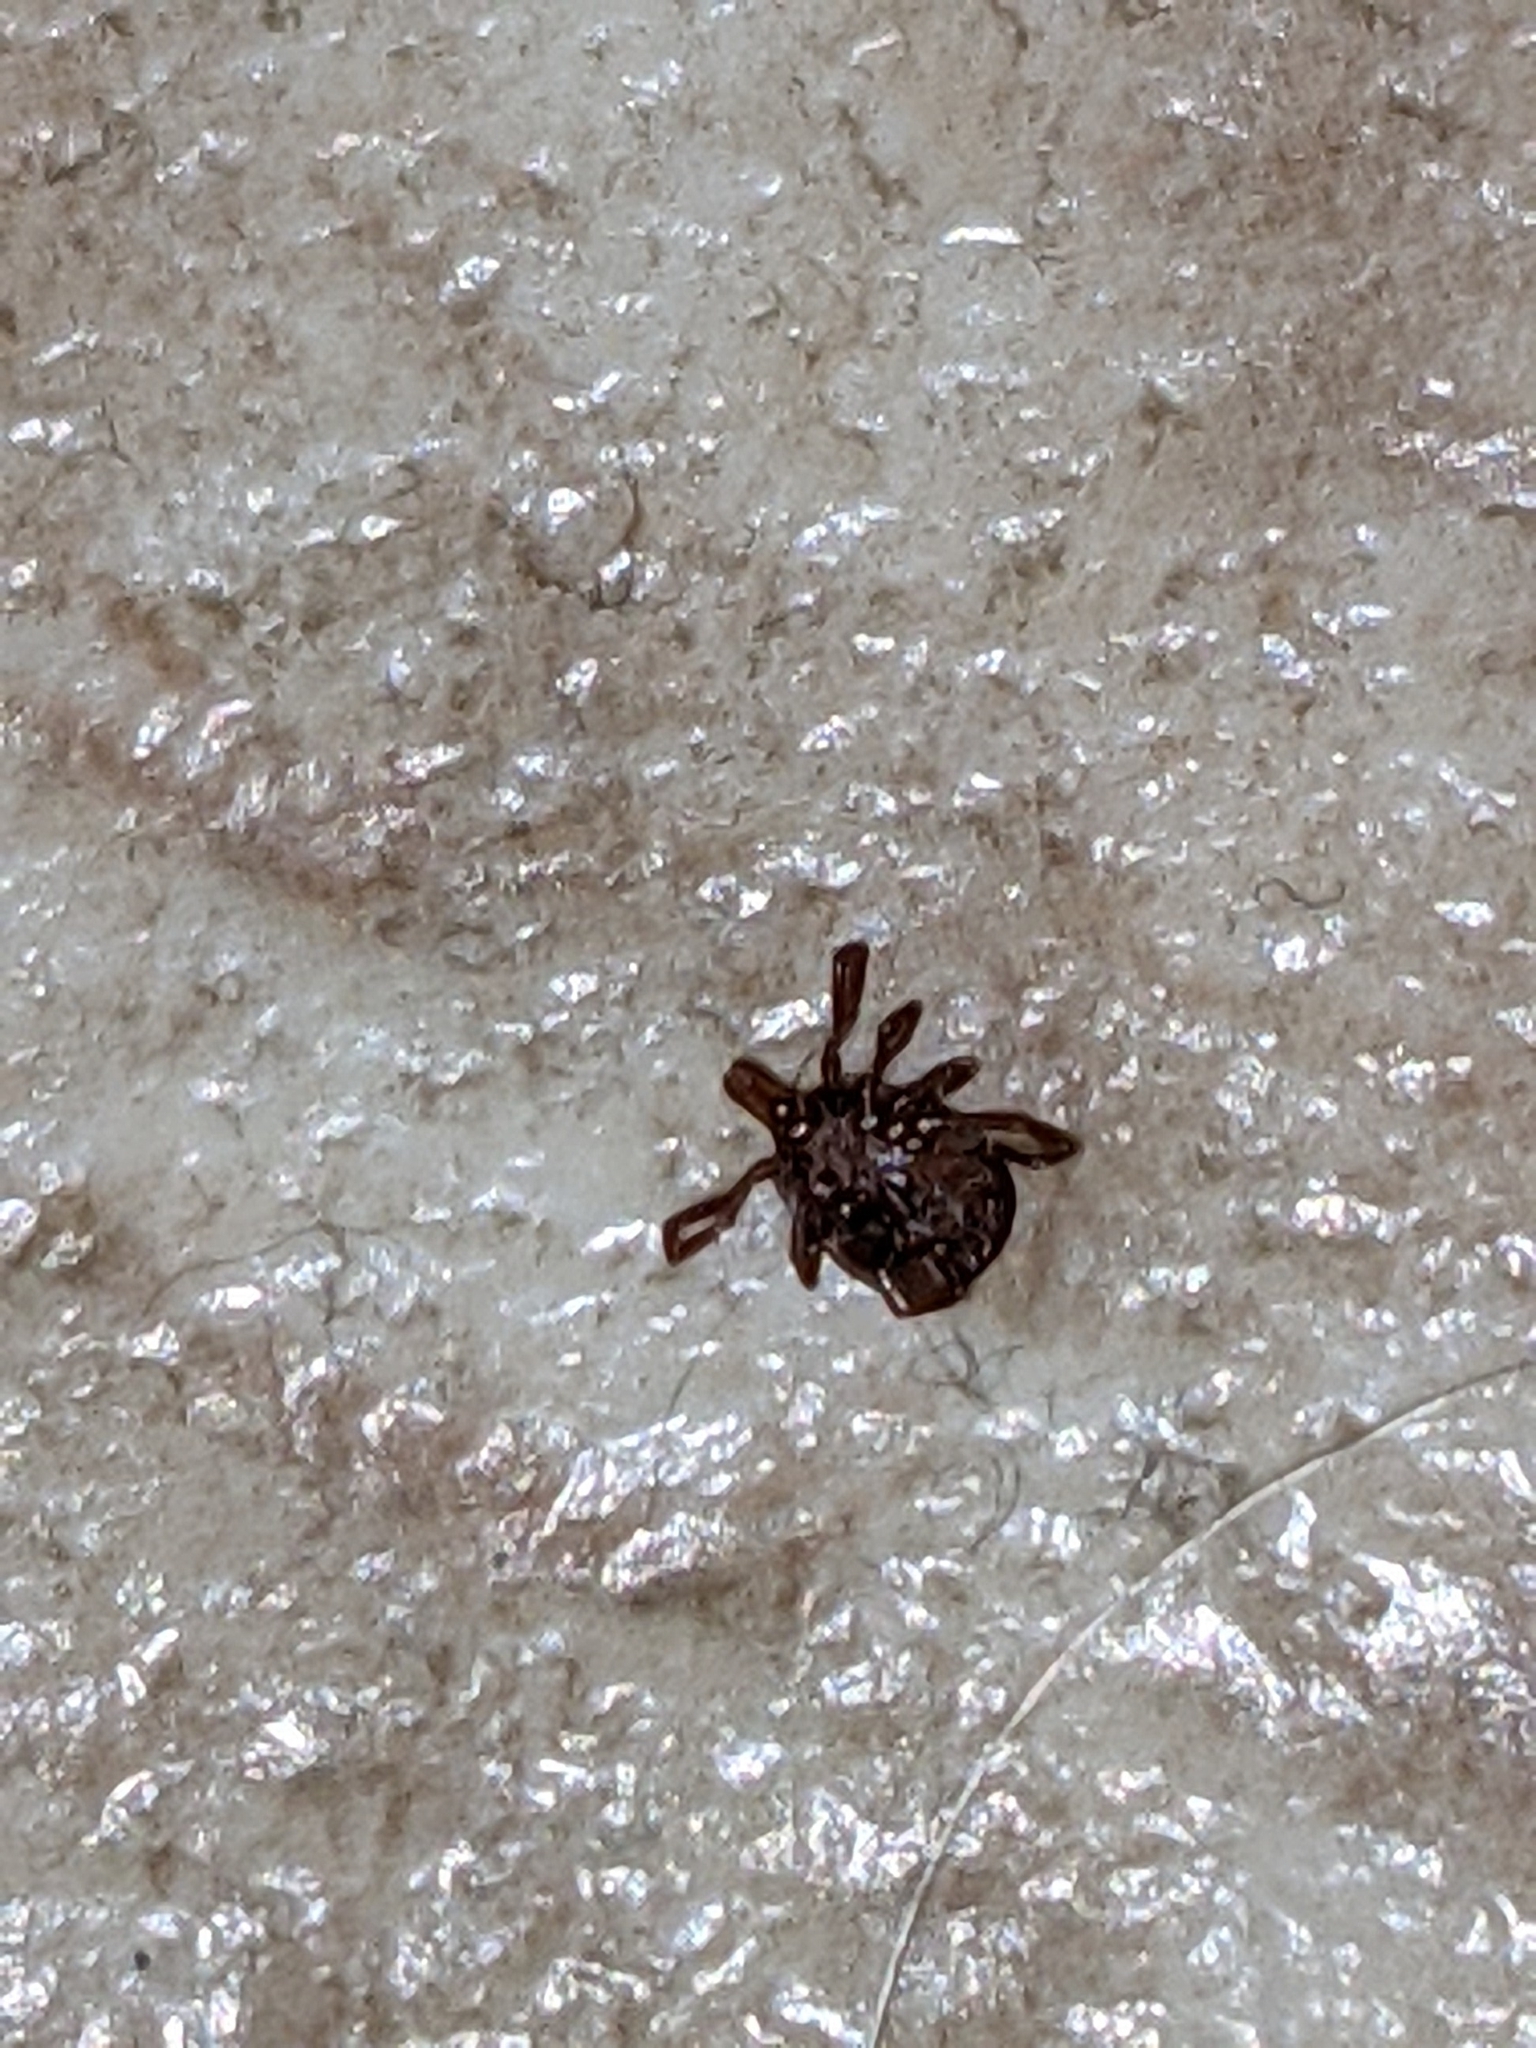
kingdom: Animalia
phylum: Arthropoda
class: Arachnida
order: Ixodida
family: Ixodidae
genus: Amblyomma
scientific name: Amblyomma americanum
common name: Lone star tick
